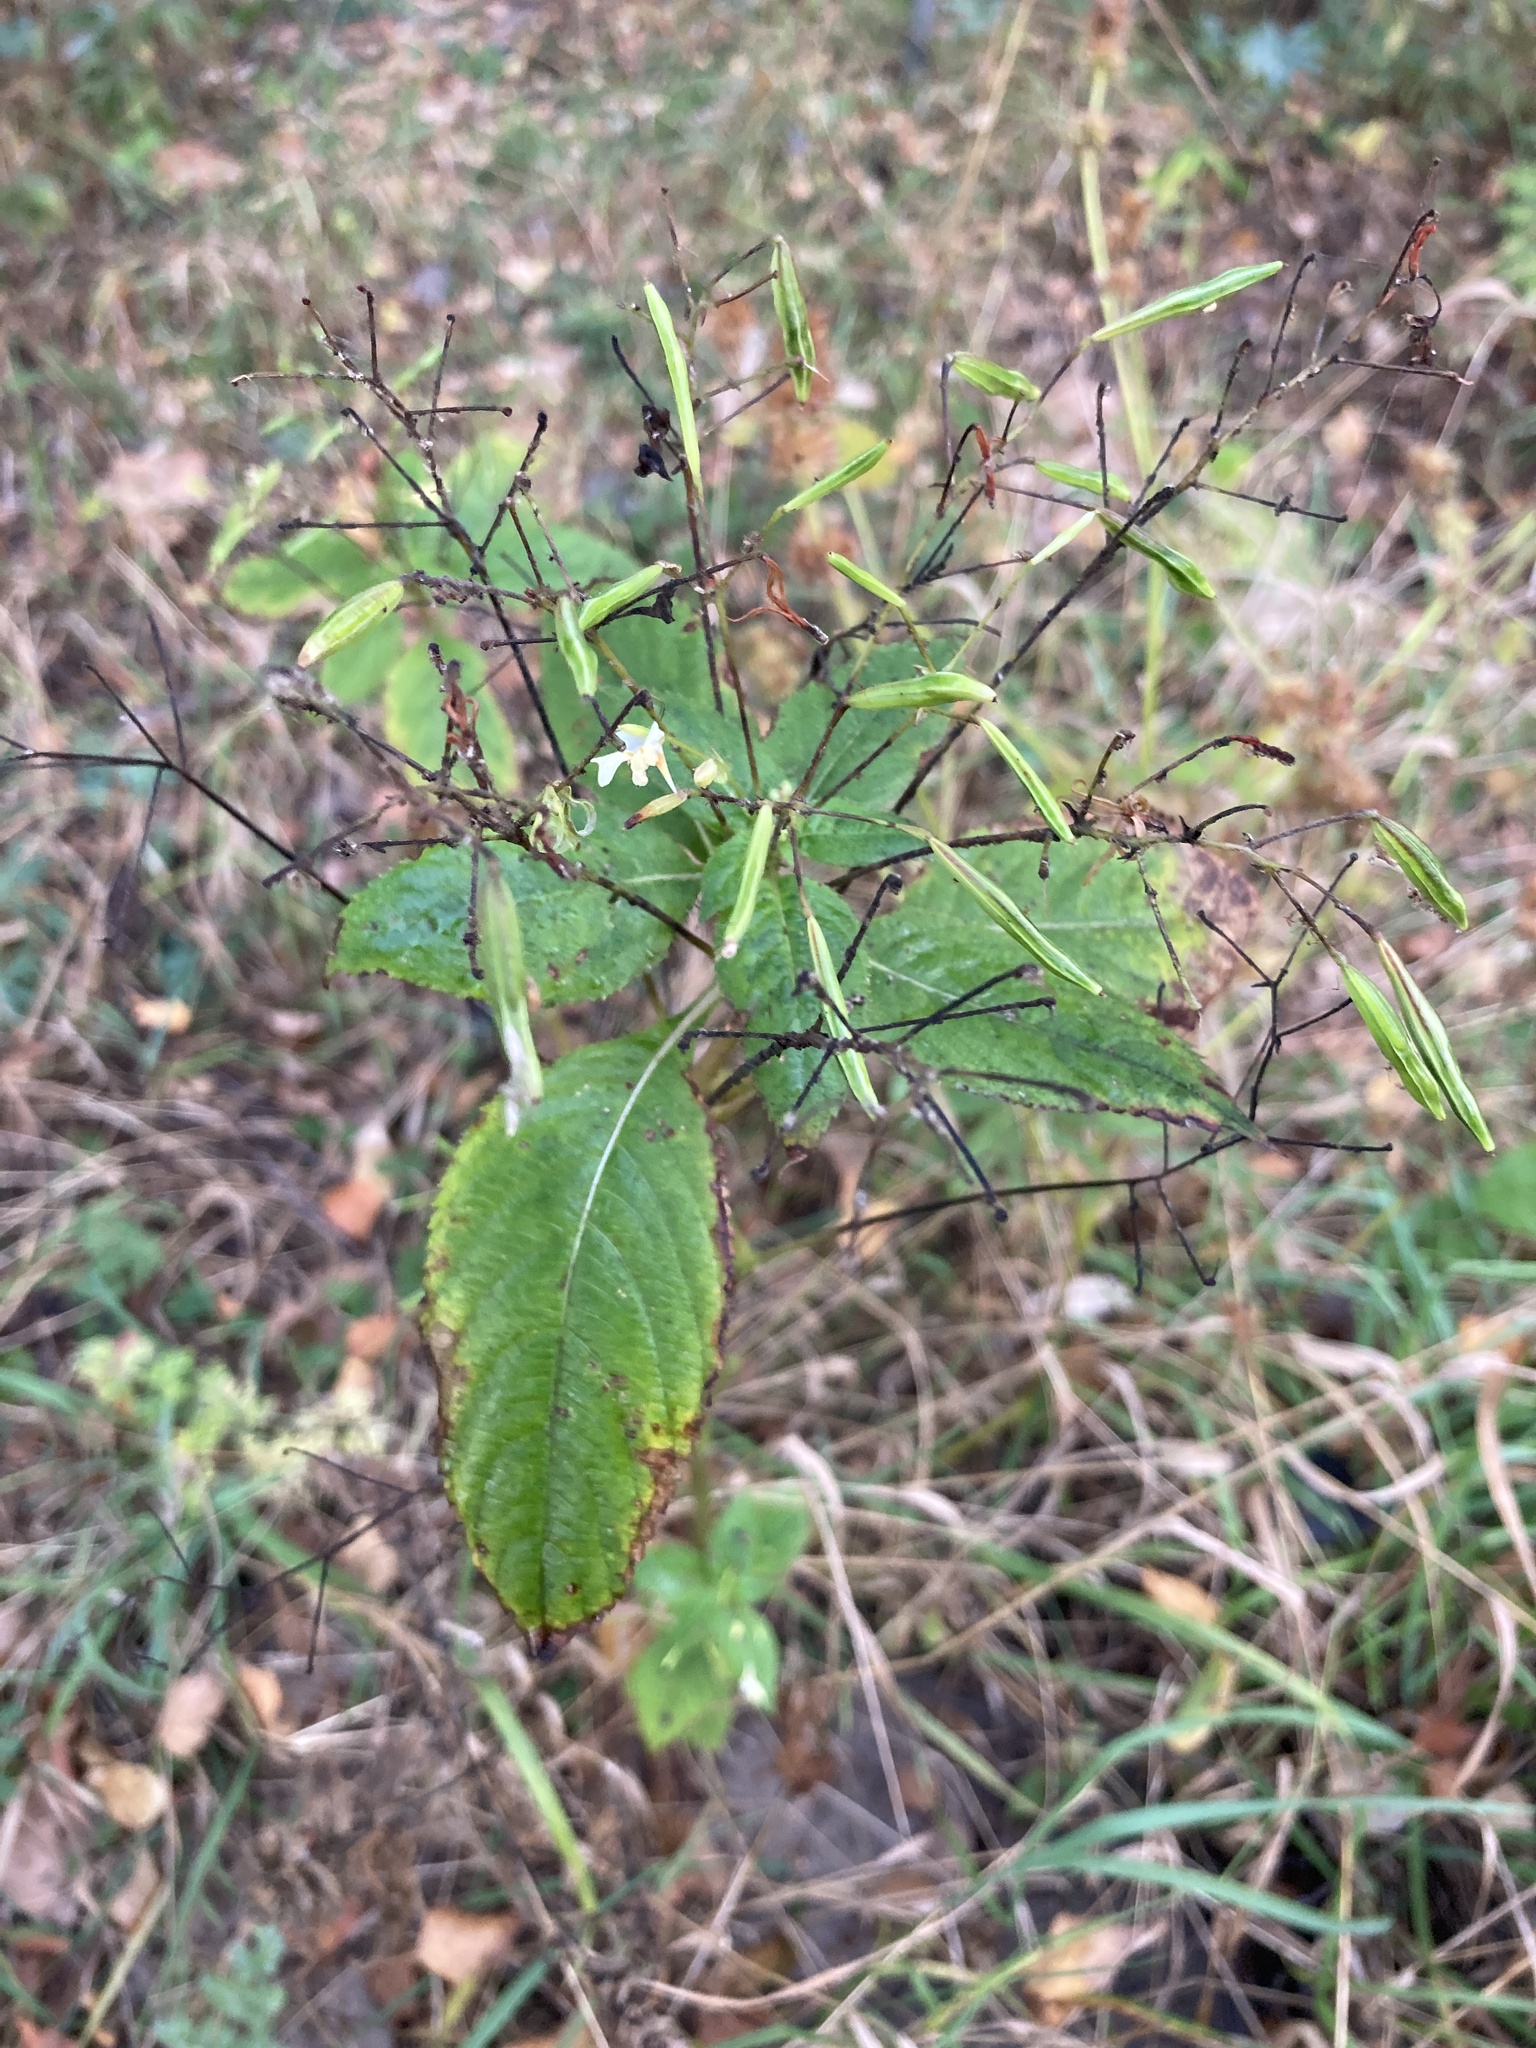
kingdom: Plantae
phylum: Tracheophyta
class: Magnoliopsida
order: Ericales
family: Balsaminaceae
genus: Impatiens
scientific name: Impatiens parviflora
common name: Small balsam
